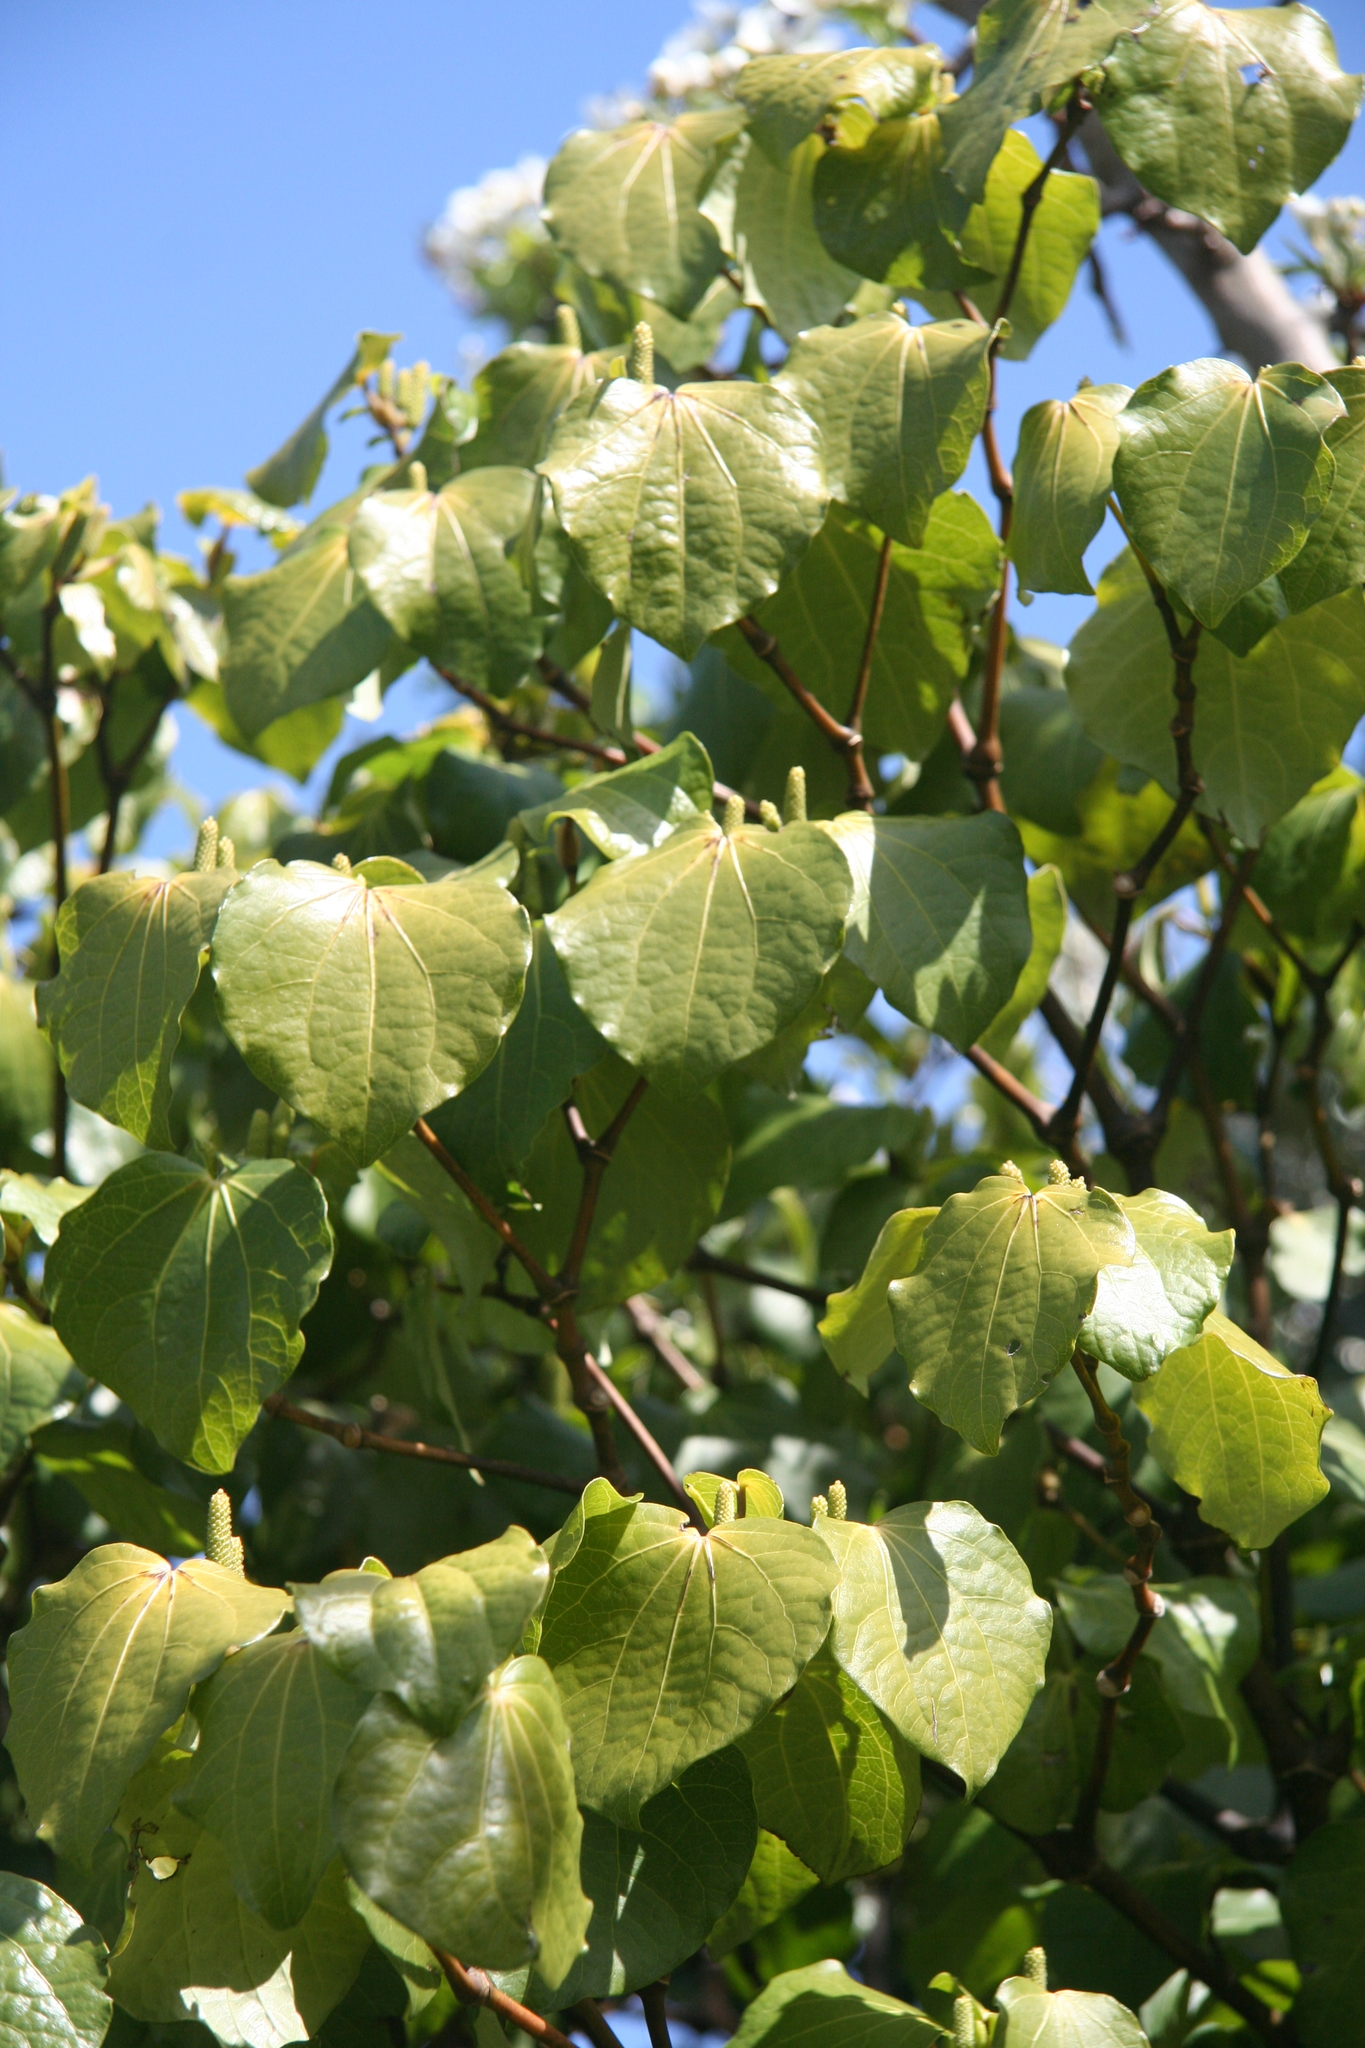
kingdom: Plantae
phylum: Tracheophyta
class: Magnoliopsida
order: Piperales
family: Piperaceae
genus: Macropiper
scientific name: Macropiper excelsum
